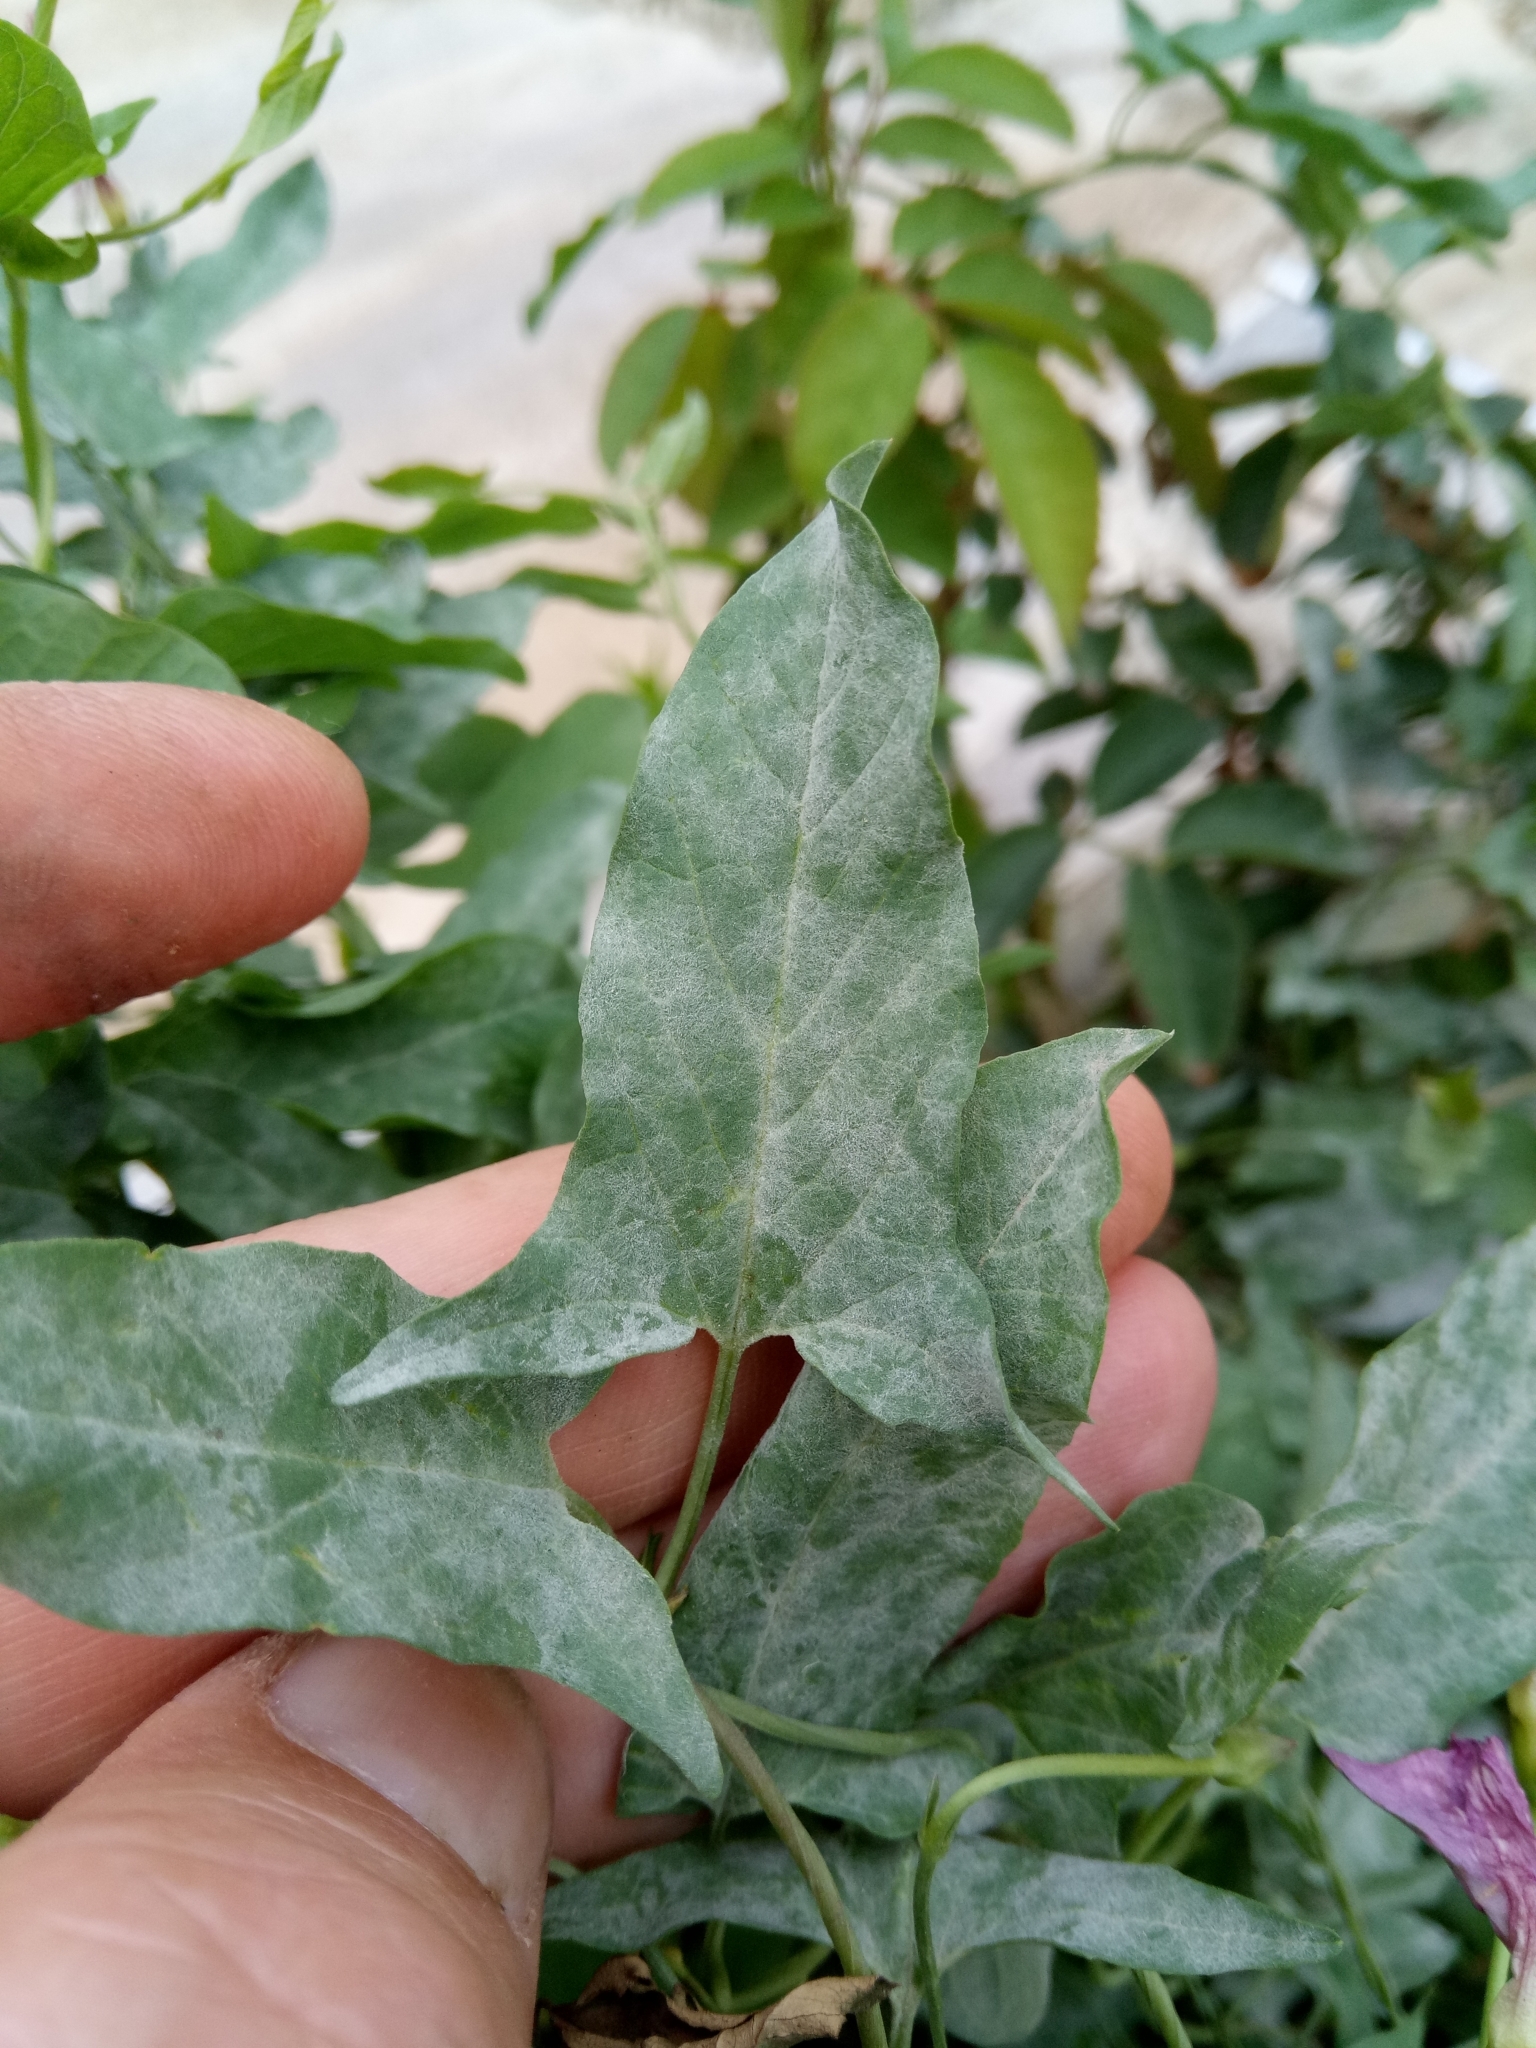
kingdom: Plantae
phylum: Tracheophyta
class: Magnoliopsida
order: Solanales
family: Convolvulaceae
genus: Convolvulus
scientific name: Convolvulus arvensis
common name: Field bindweed
